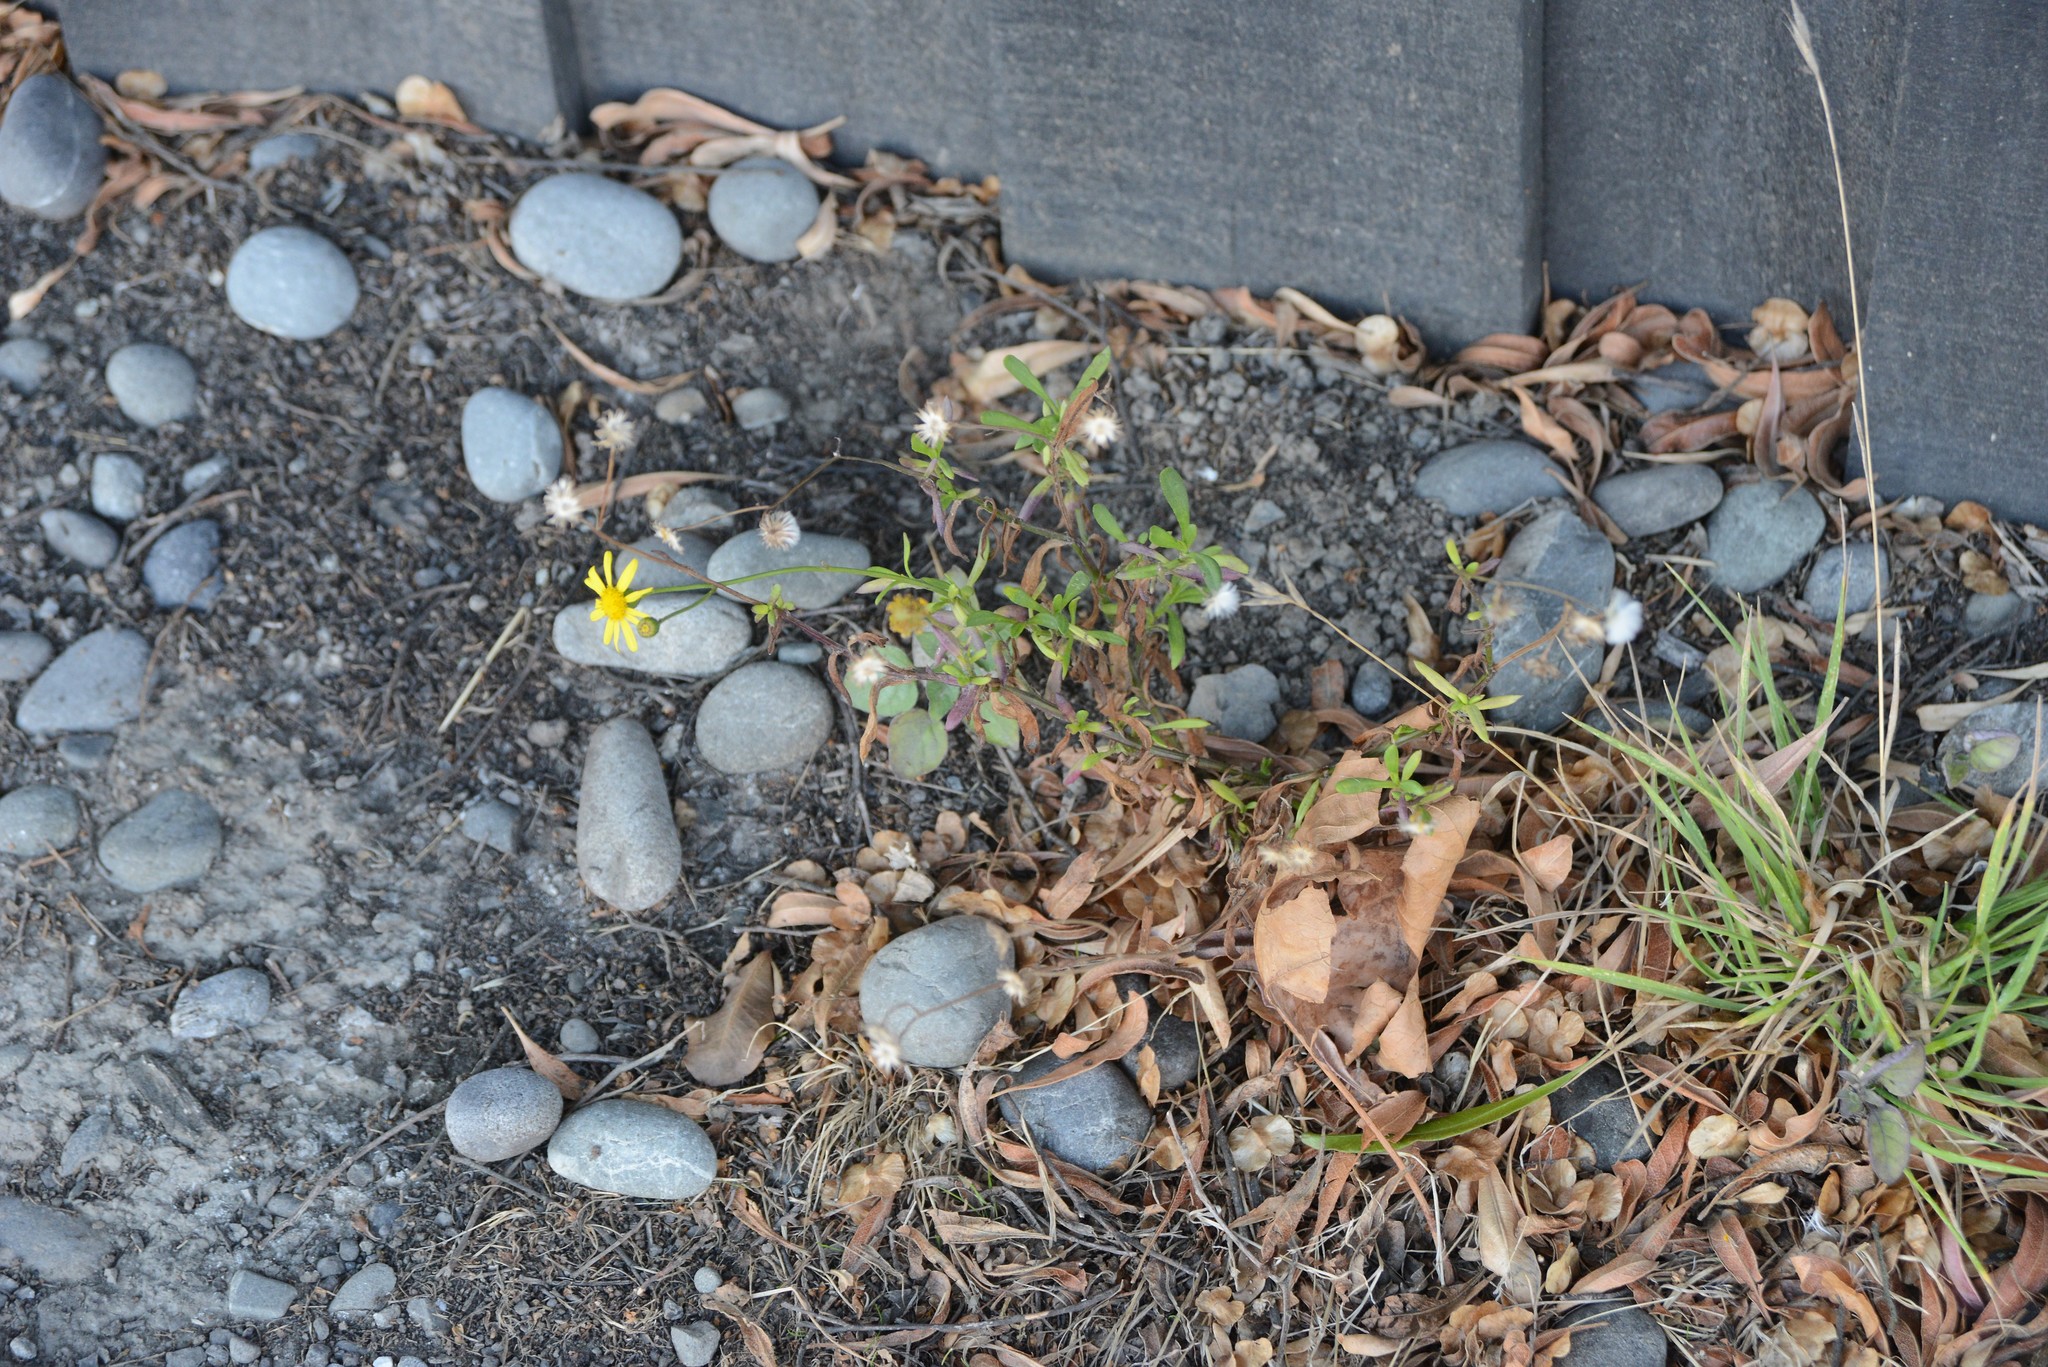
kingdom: Plantae
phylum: Tracheophyta
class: Magnoliopsida
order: Asterales
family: Asteraceae
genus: Senecio
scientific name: Senecio skirrhodon
